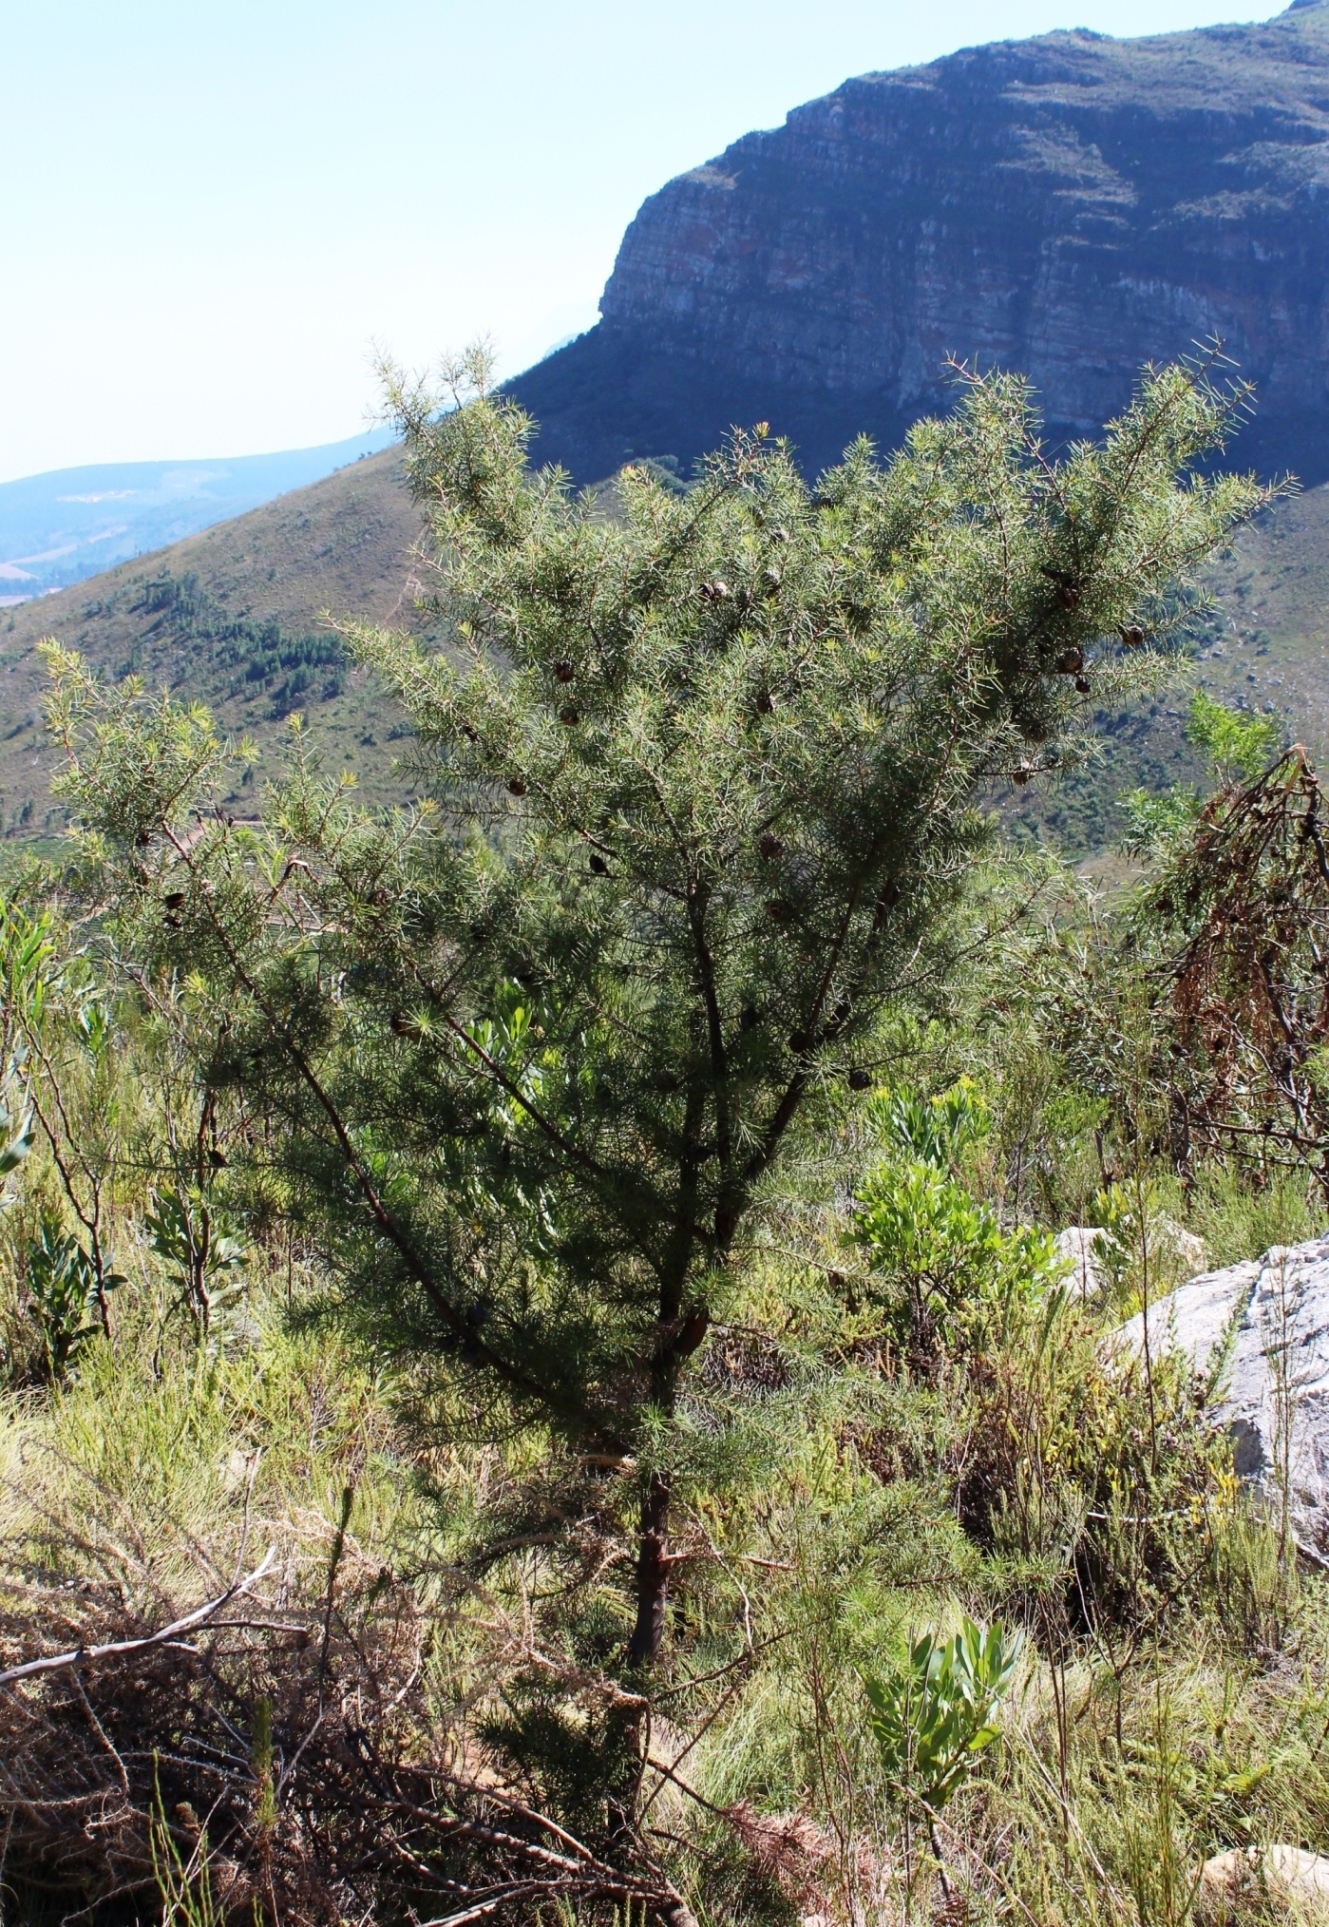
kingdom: Plantae
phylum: Tracheophyta
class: Magnoliopsida
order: Proteales
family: Proteaceae
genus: Hakea
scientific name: Hakea sericea
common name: Needle bush
